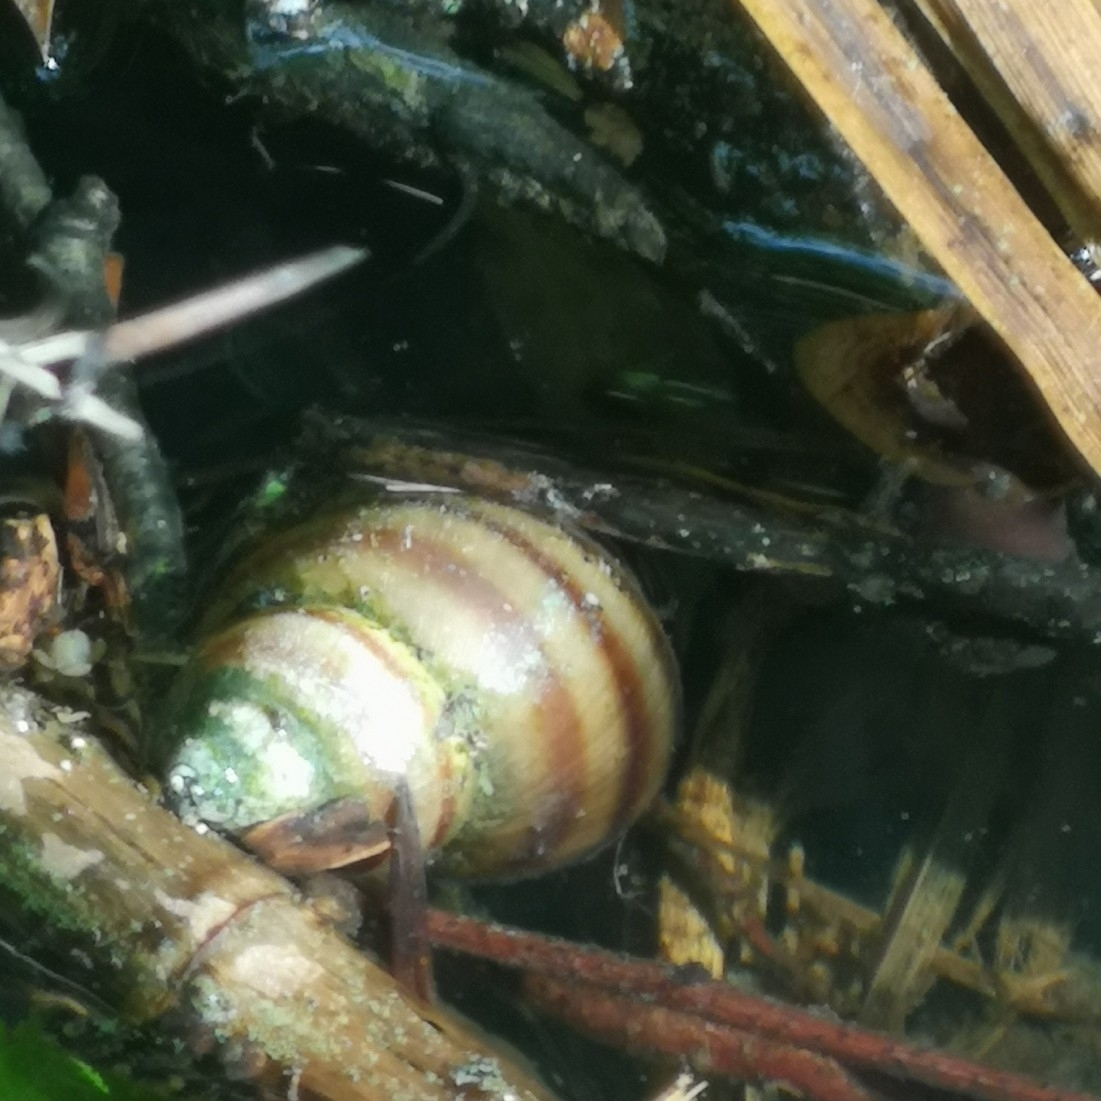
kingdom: Animalia
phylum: Mollusca
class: Gastropoda
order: Architaenioglossa
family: Viviparidae
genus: Viviparus
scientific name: Viviparus ater
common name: Italian river snail
